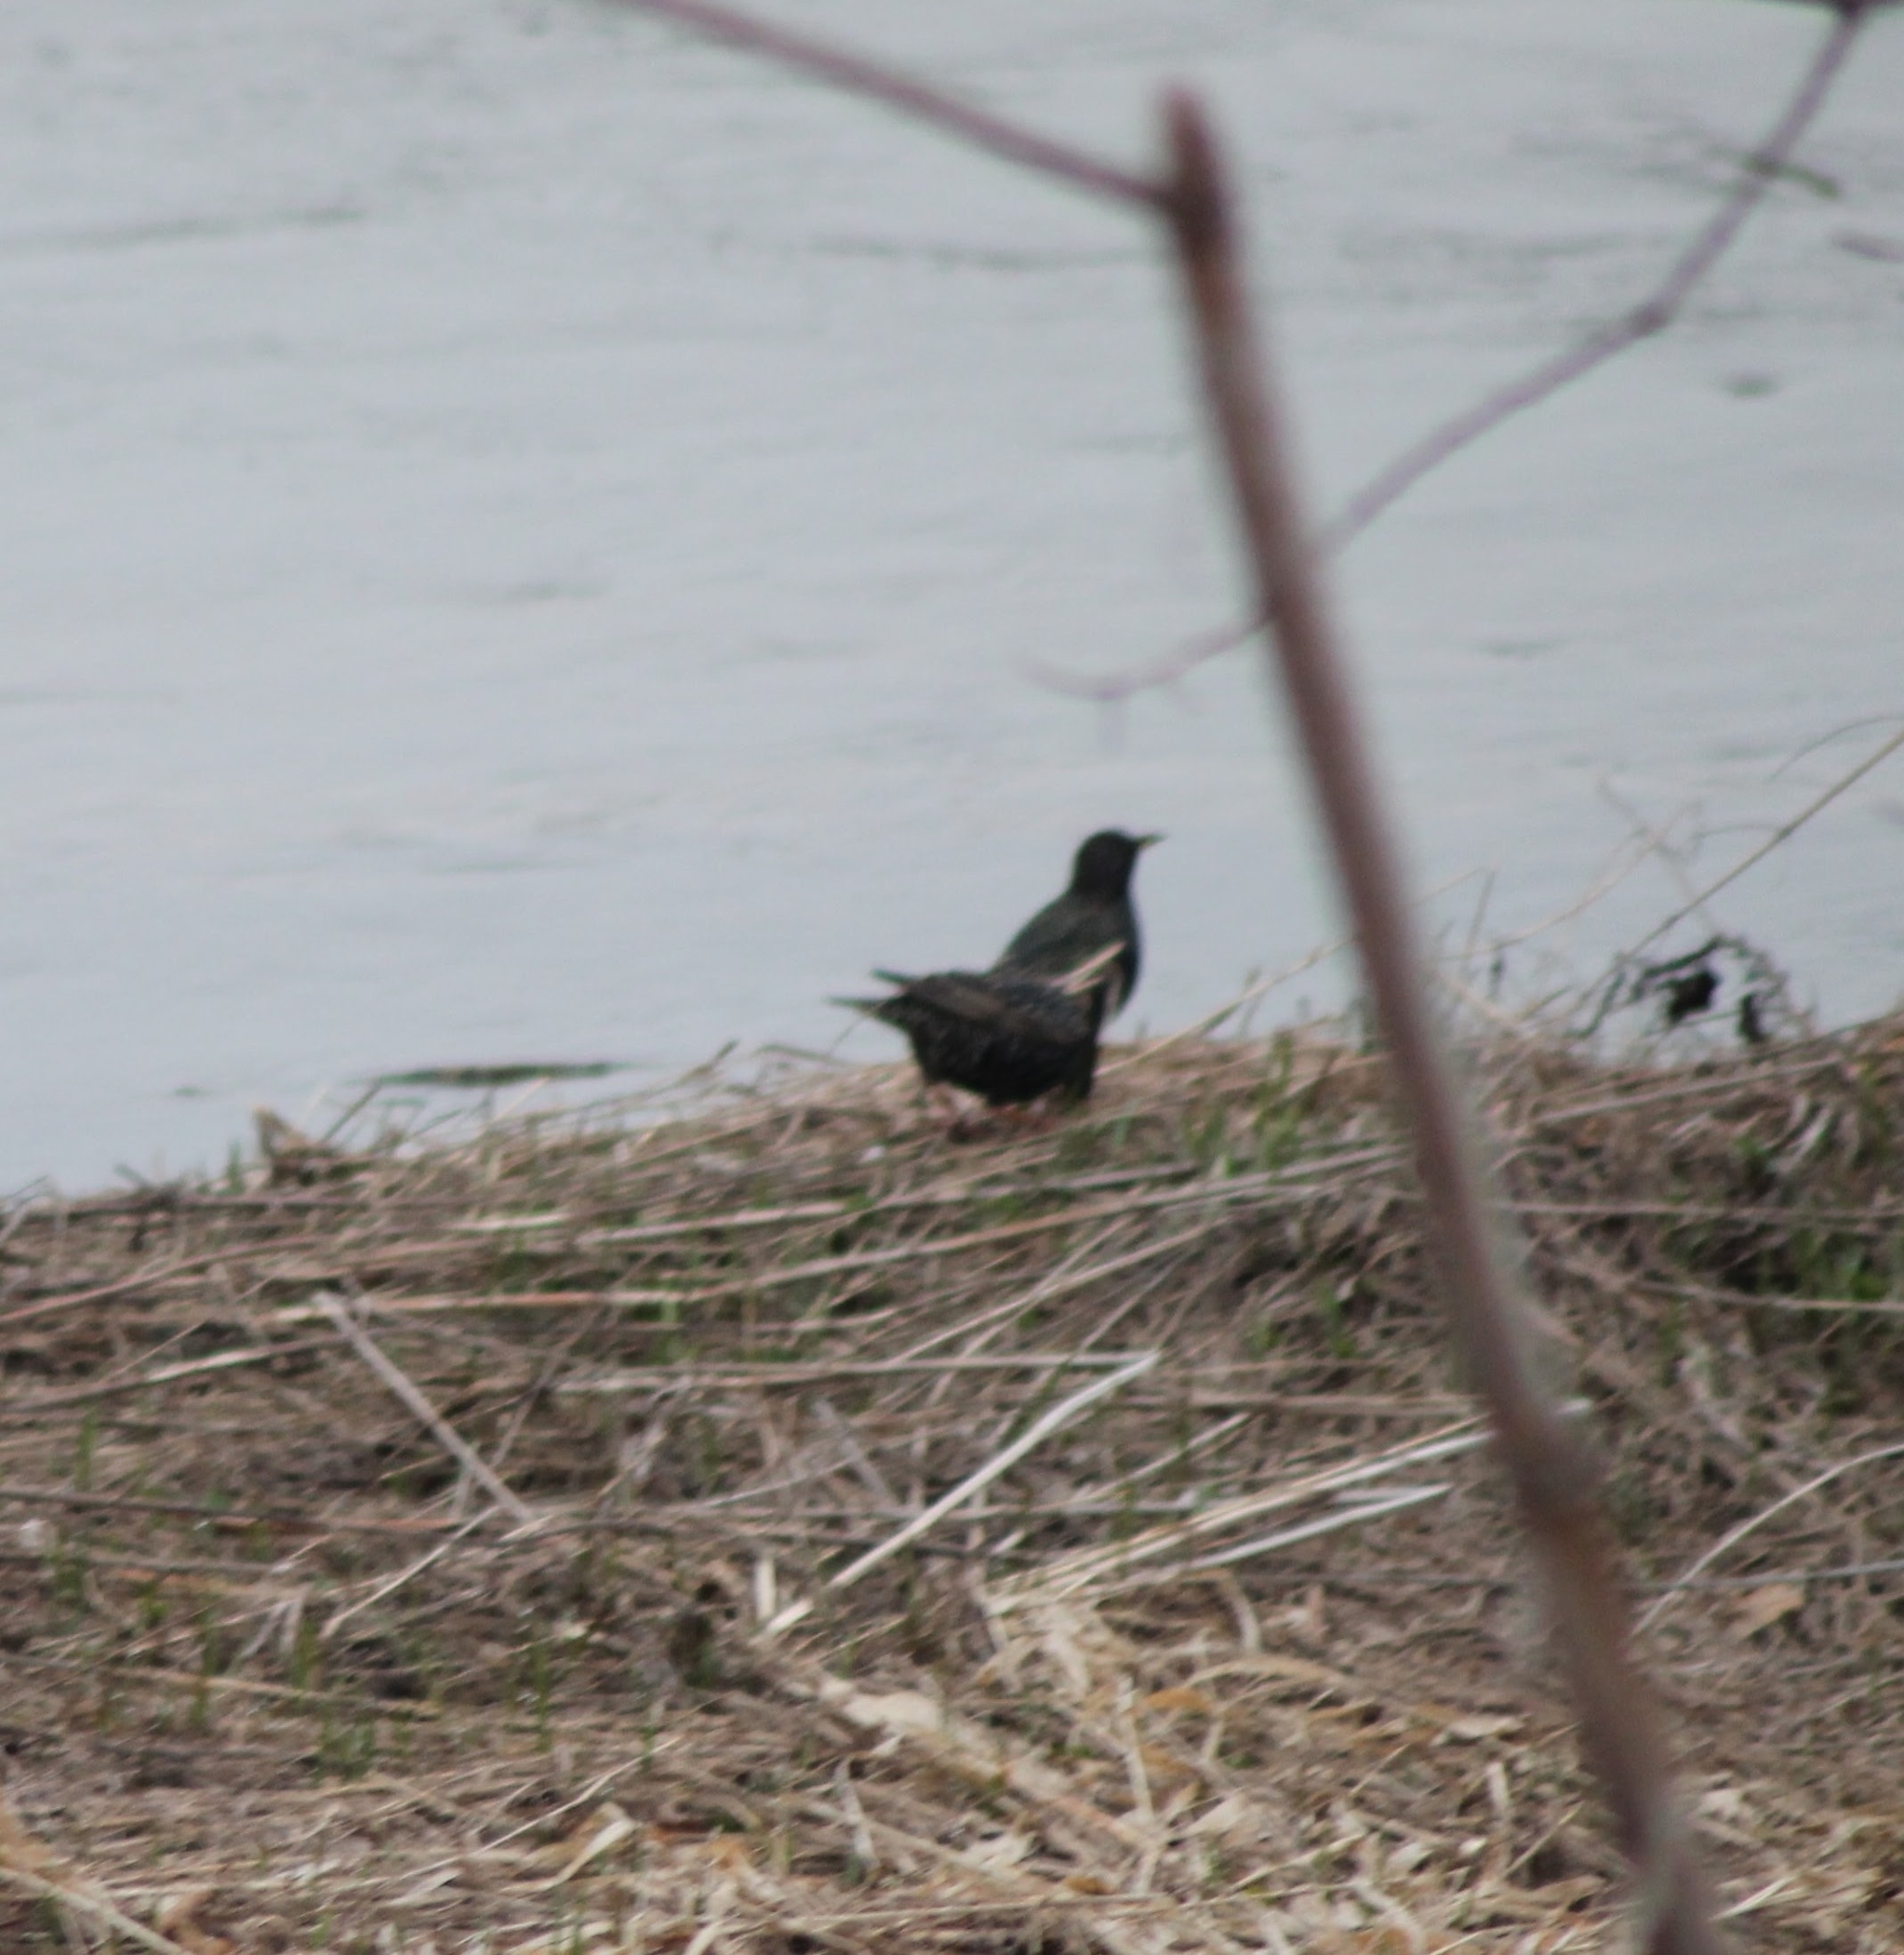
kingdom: Animalia
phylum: Chordata
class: Aves
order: Passeriformes
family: Sturnidae
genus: Sturnus
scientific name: Sturnus vulgaris
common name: Common starling
